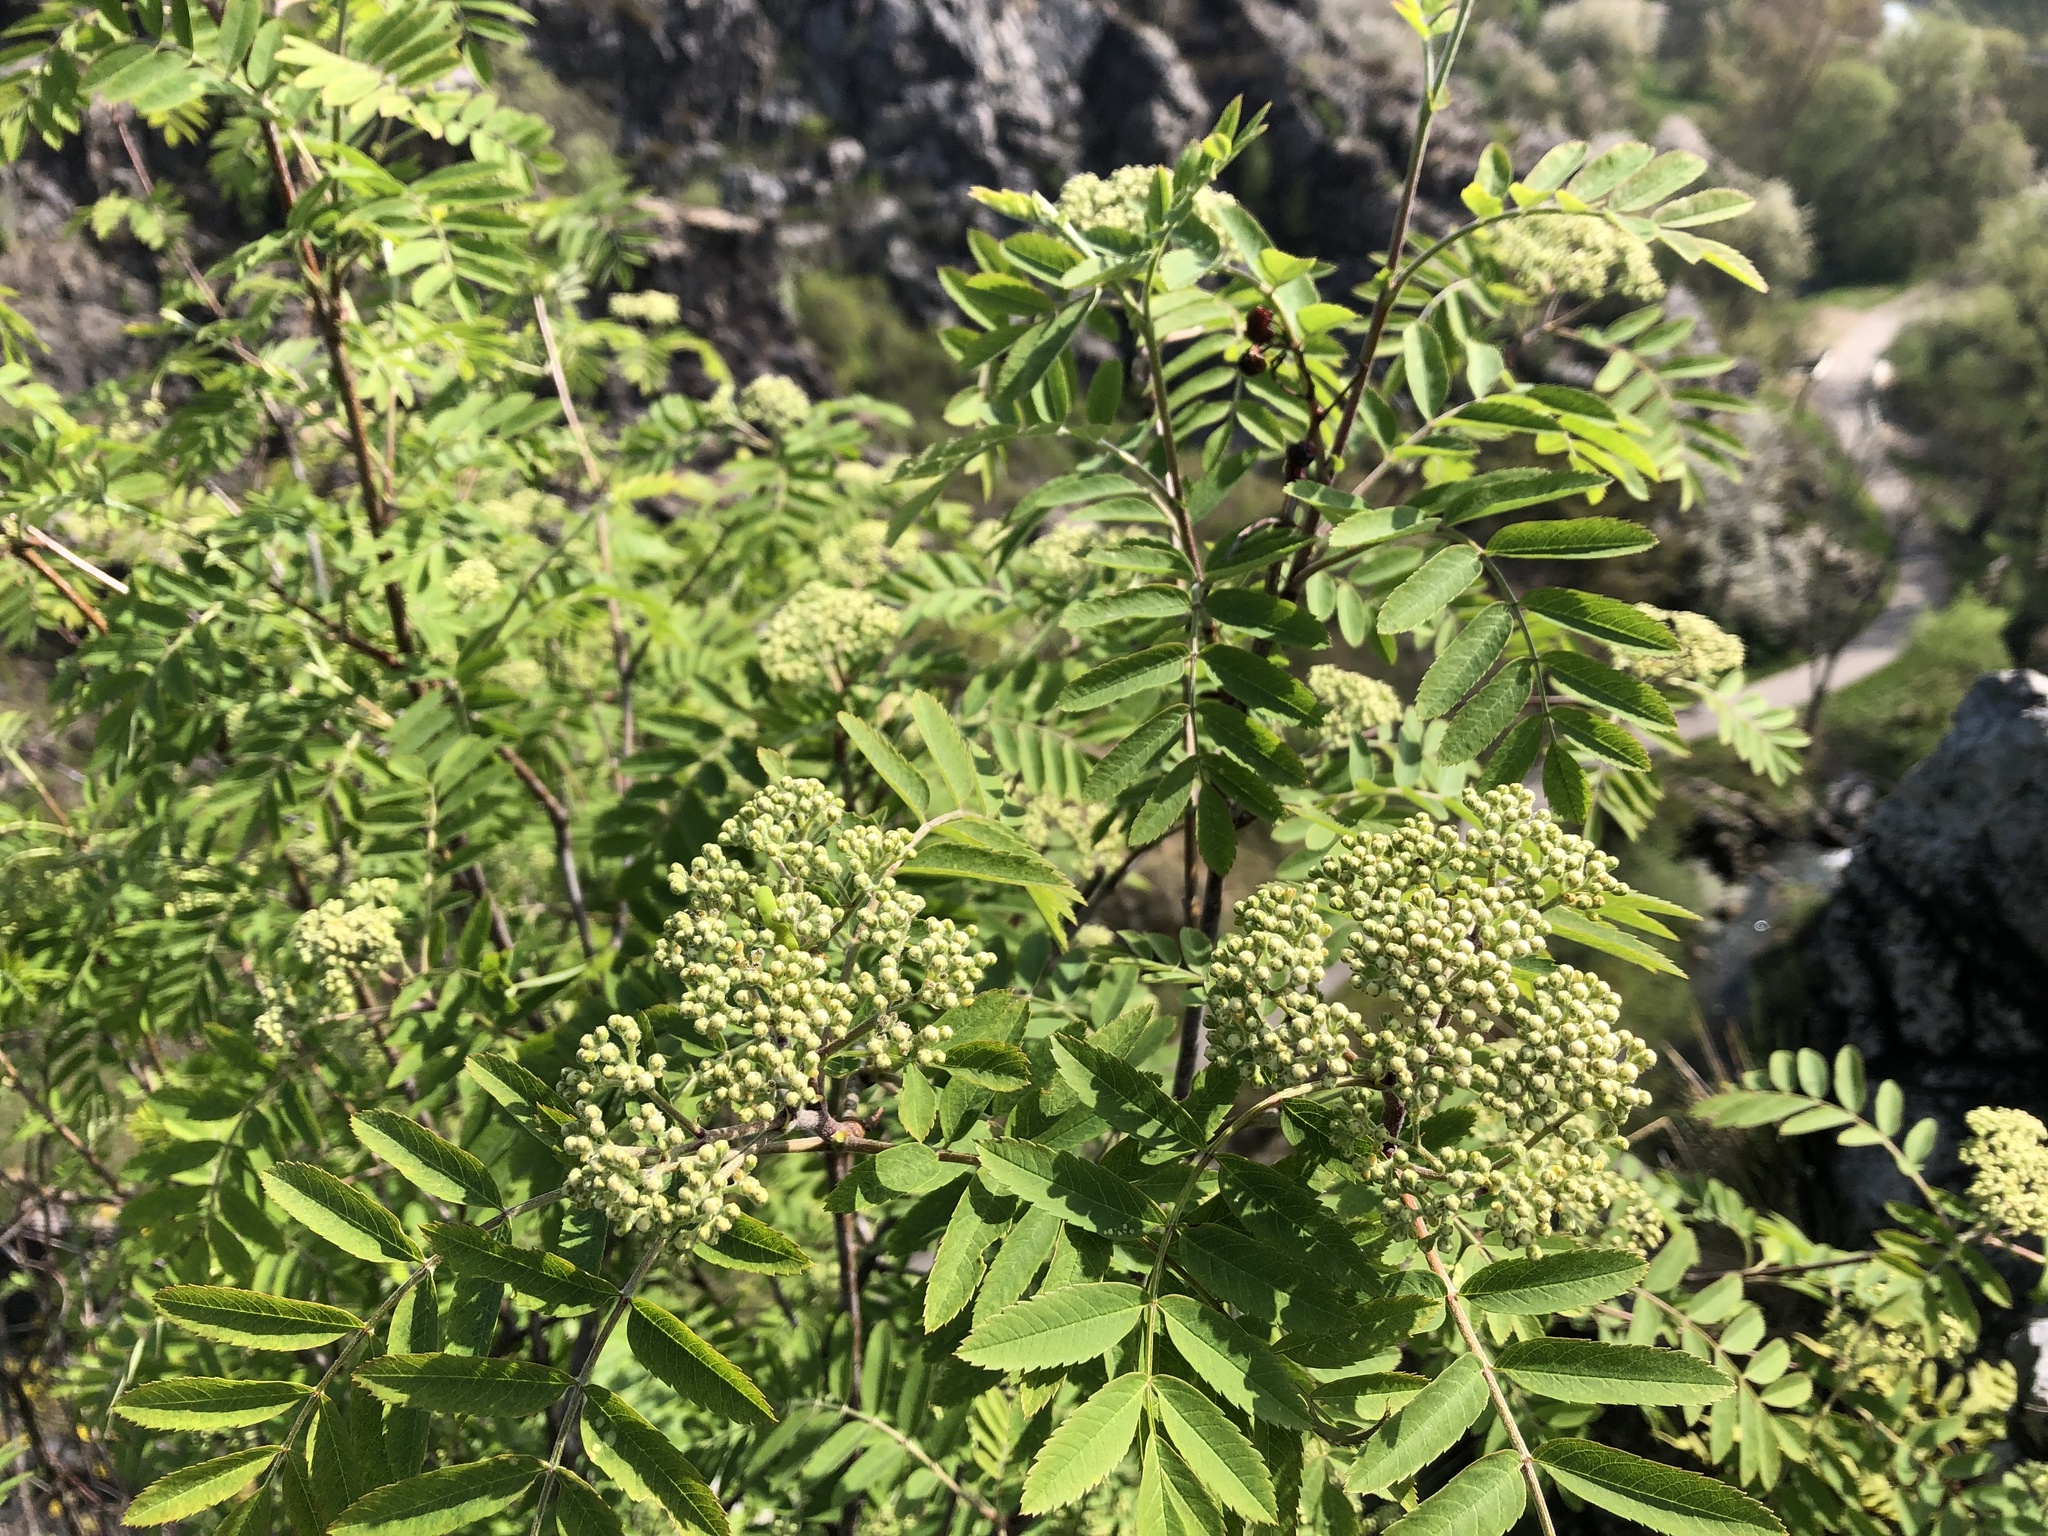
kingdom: Plantae
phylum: Tracheophyta
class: Magnoliopsida
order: Rosales
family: Rosaceae
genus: Sorbus
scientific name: Sorbus aucuparia
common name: Rowan
